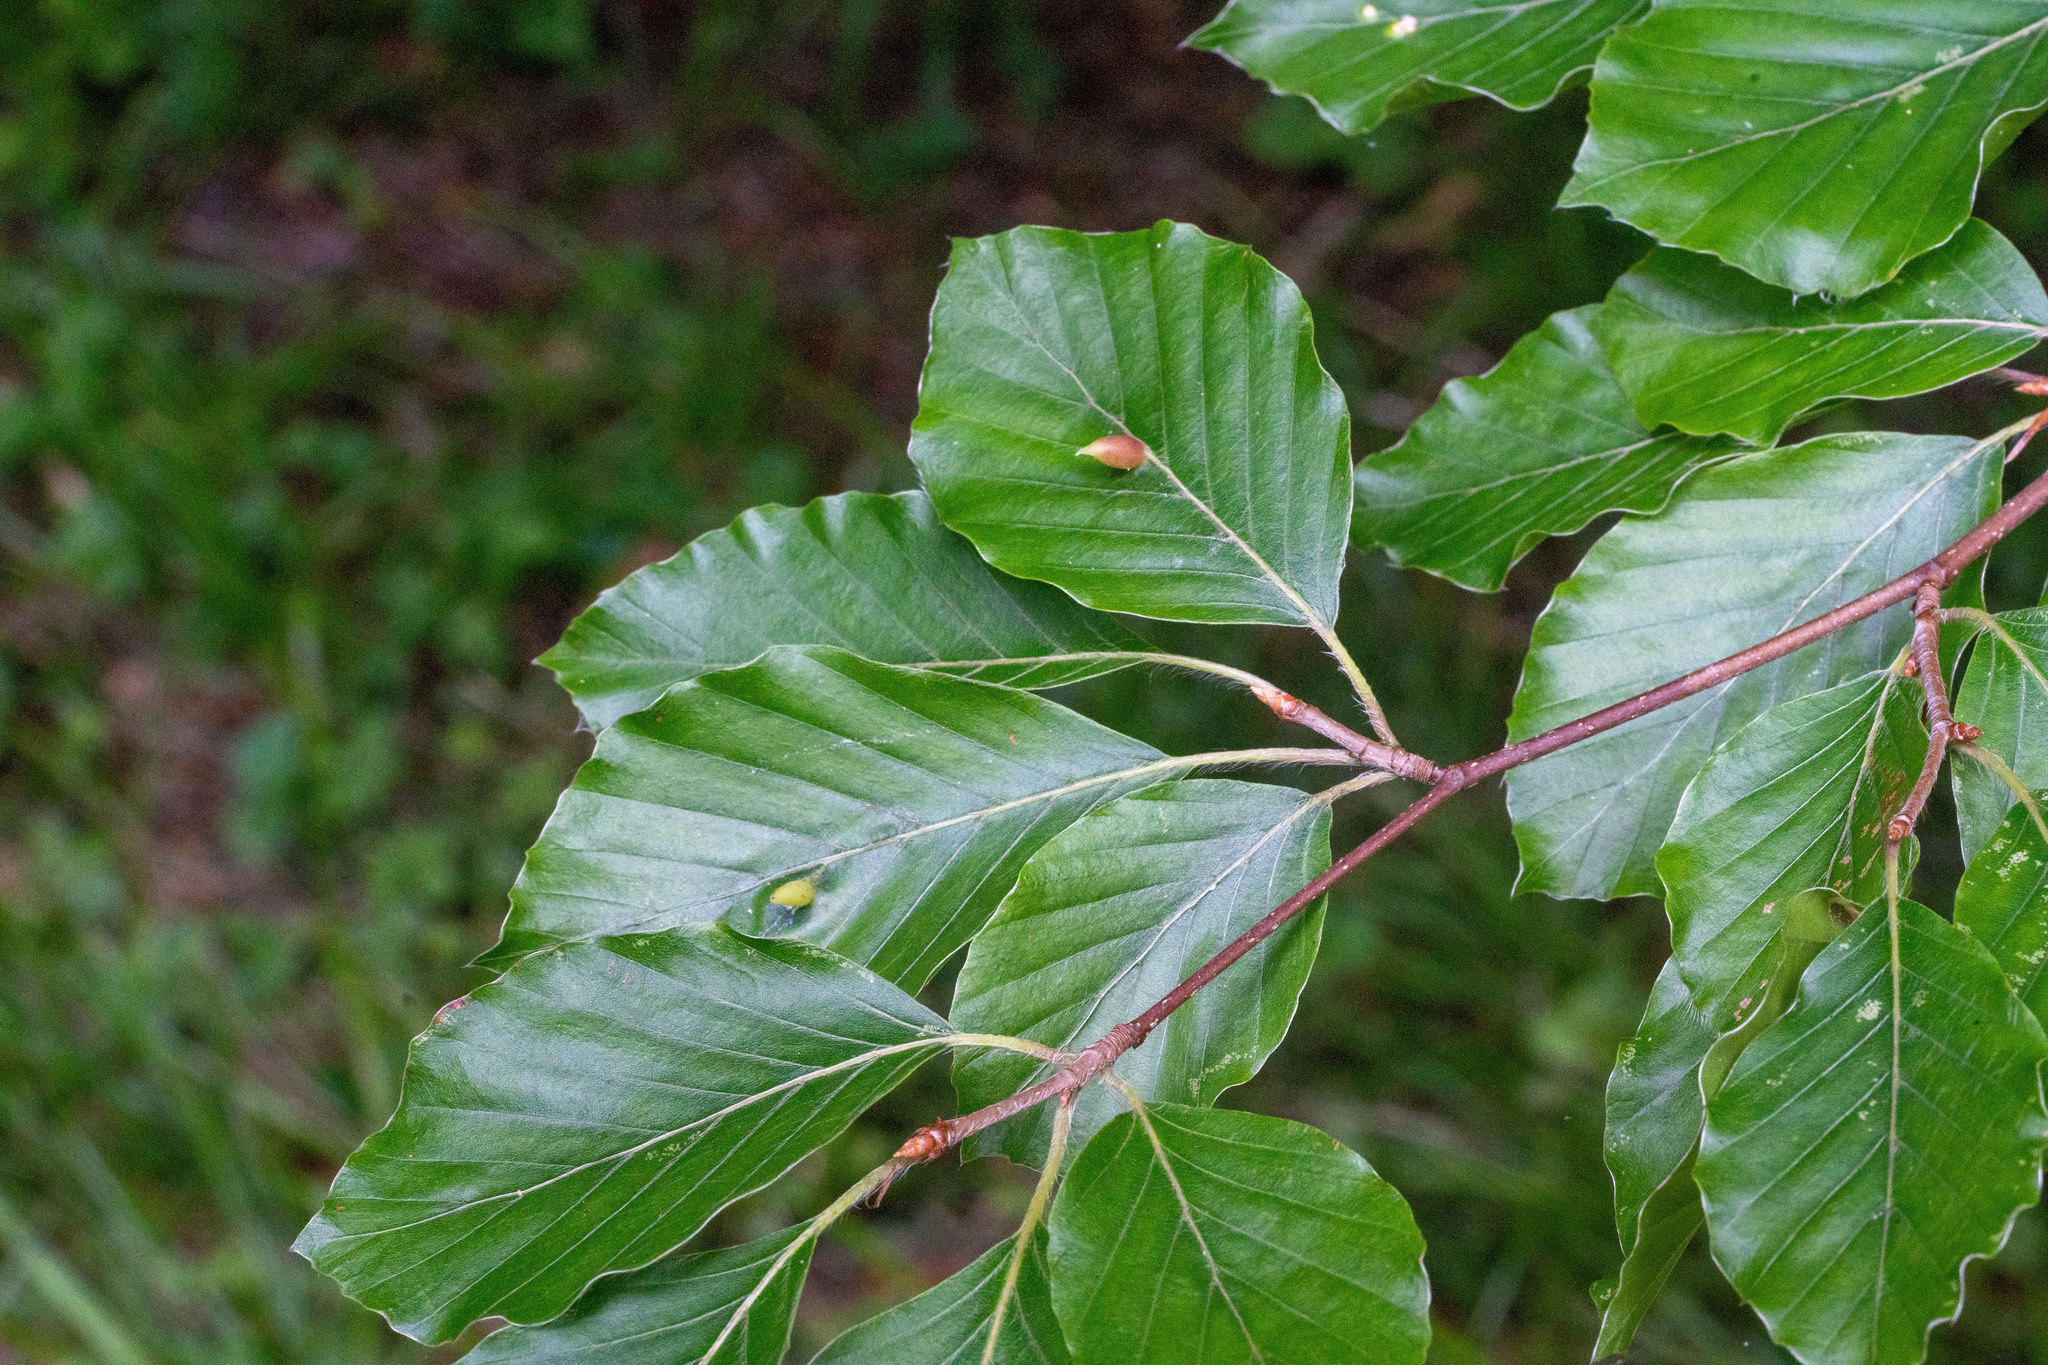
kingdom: Animalia
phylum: Arthropoda
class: Insecta
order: Diptera
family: Cecidomyiidae
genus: Mikiola
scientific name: Mikiola fagi
